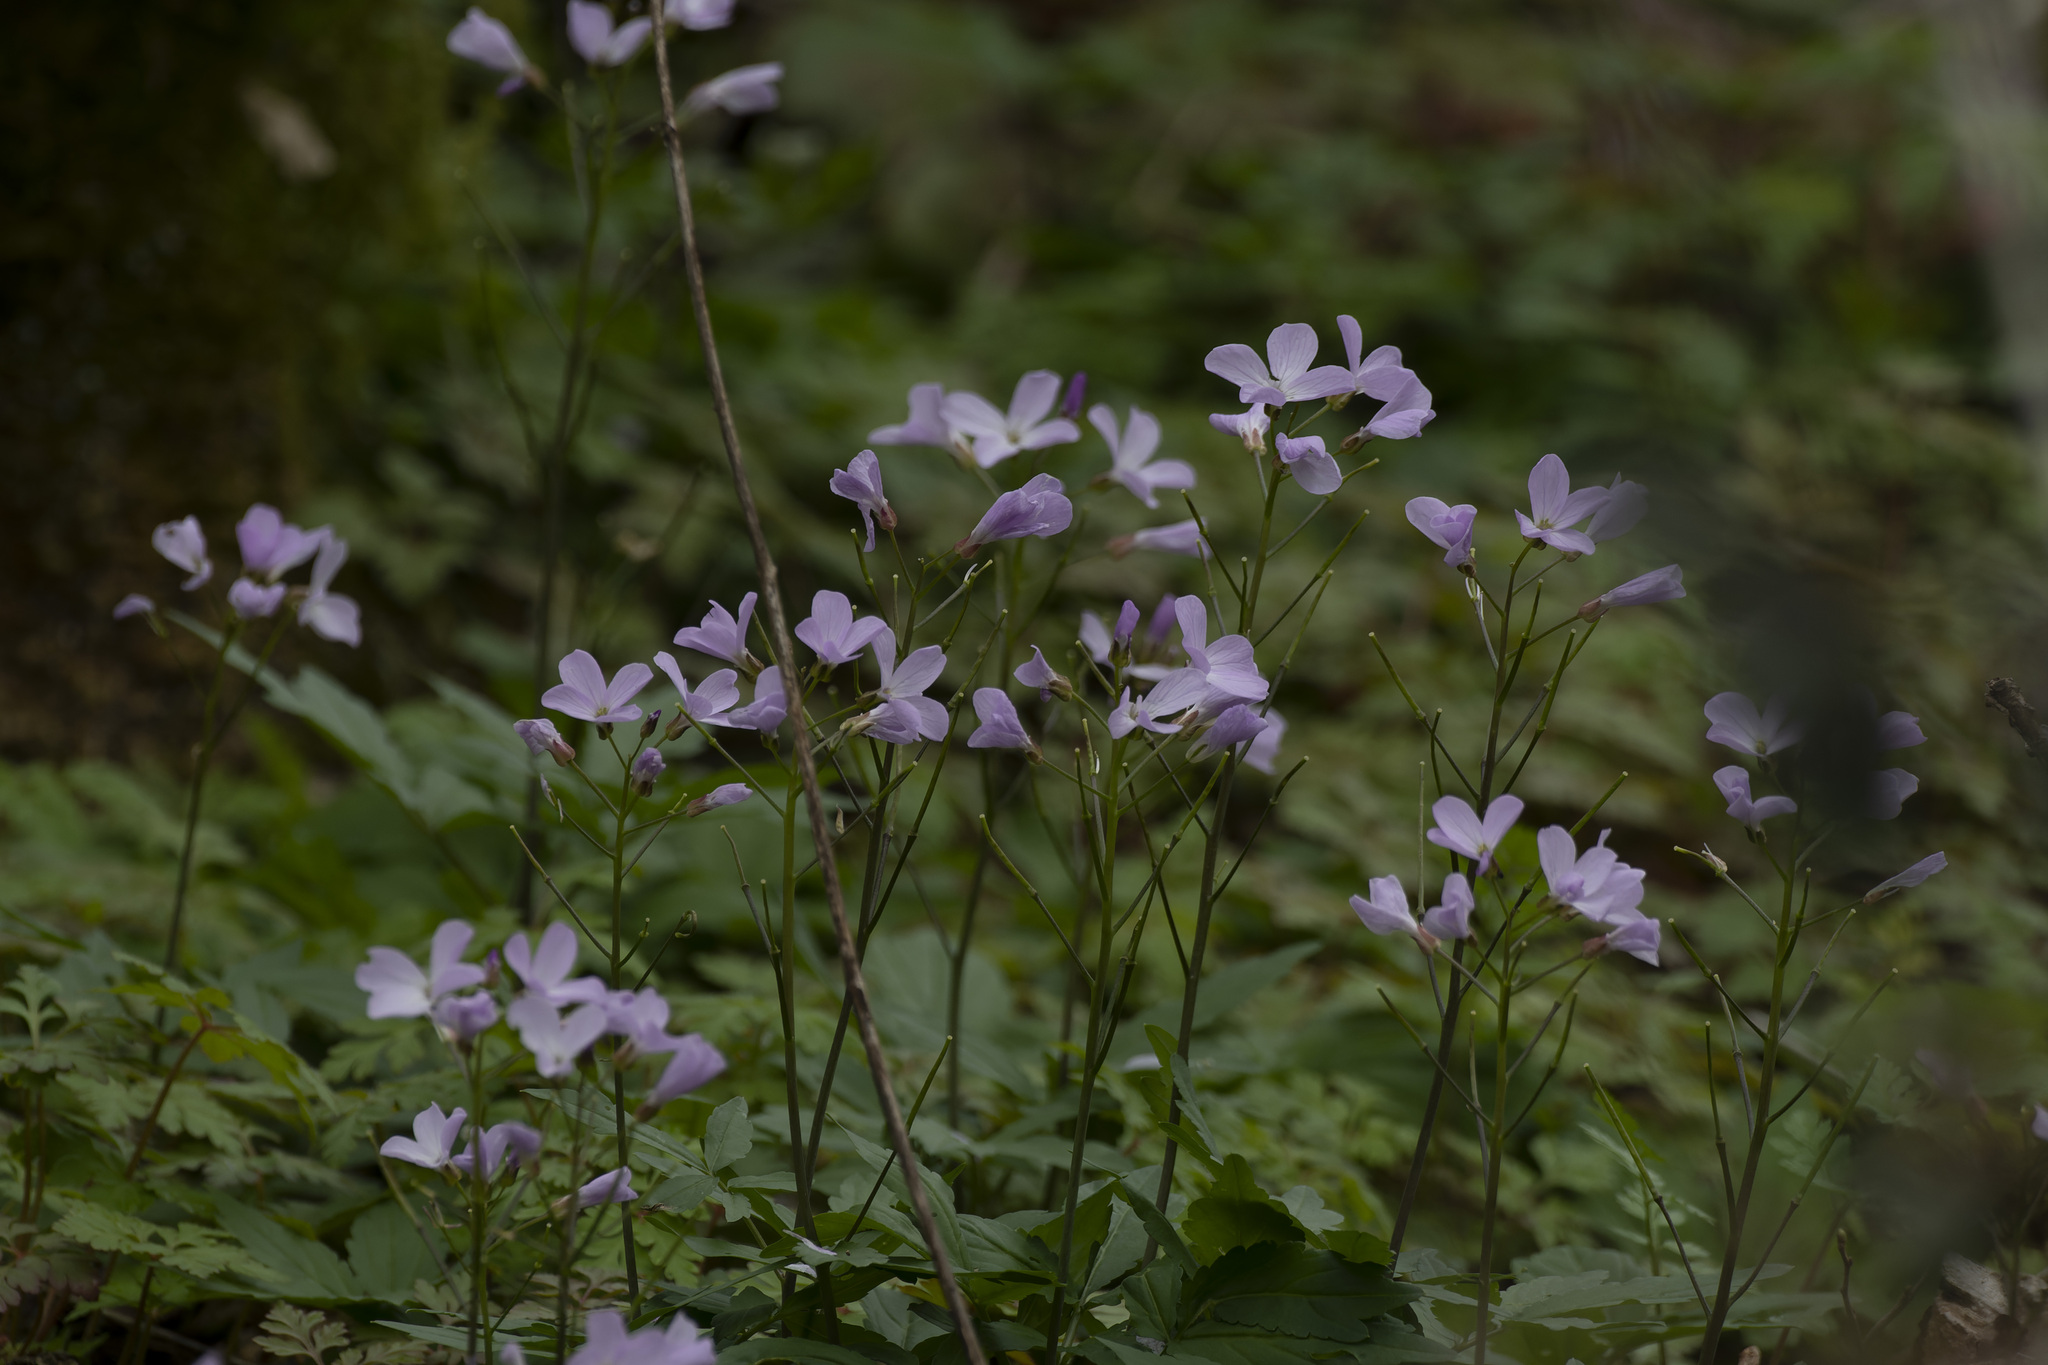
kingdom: Plantae
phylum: Tracheophyta
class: Magnoliopsida
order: Brassicales
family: Brassicaceae
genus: Cardamine
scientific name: Cardamine quinquefolia
